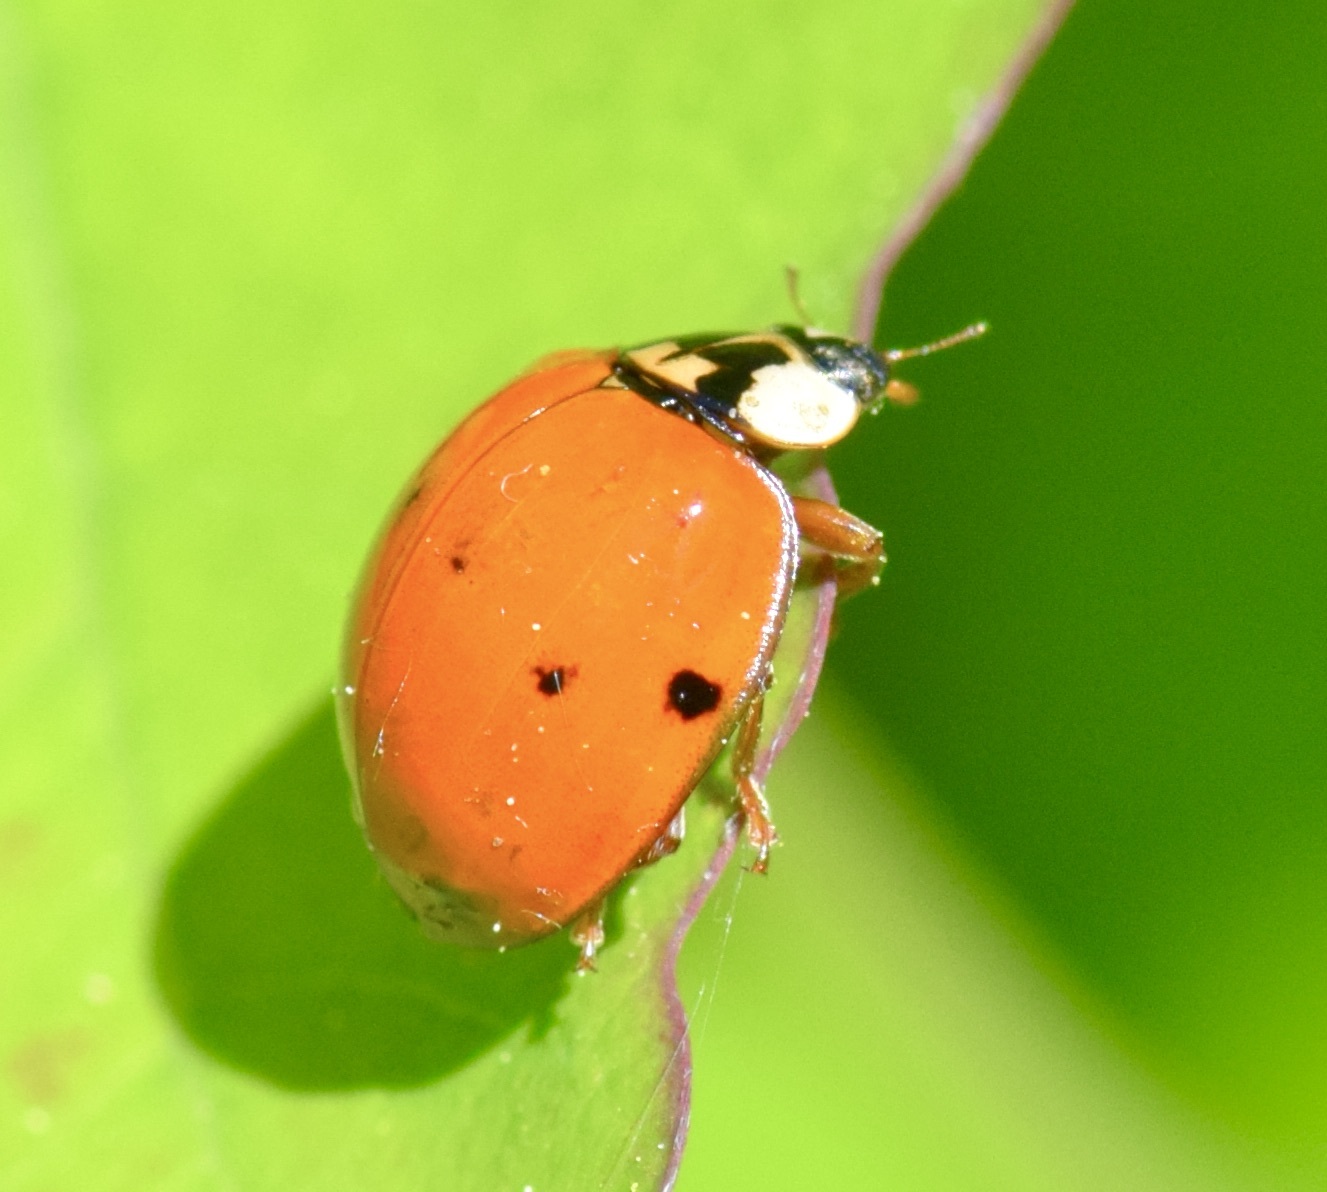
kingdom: Animalia
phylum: Arthropoda
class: Insecta
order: Coleoptera
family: Coccinellidae
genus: Harmonia
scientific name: Harmonia axyridis
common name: Harlequin ladybird
